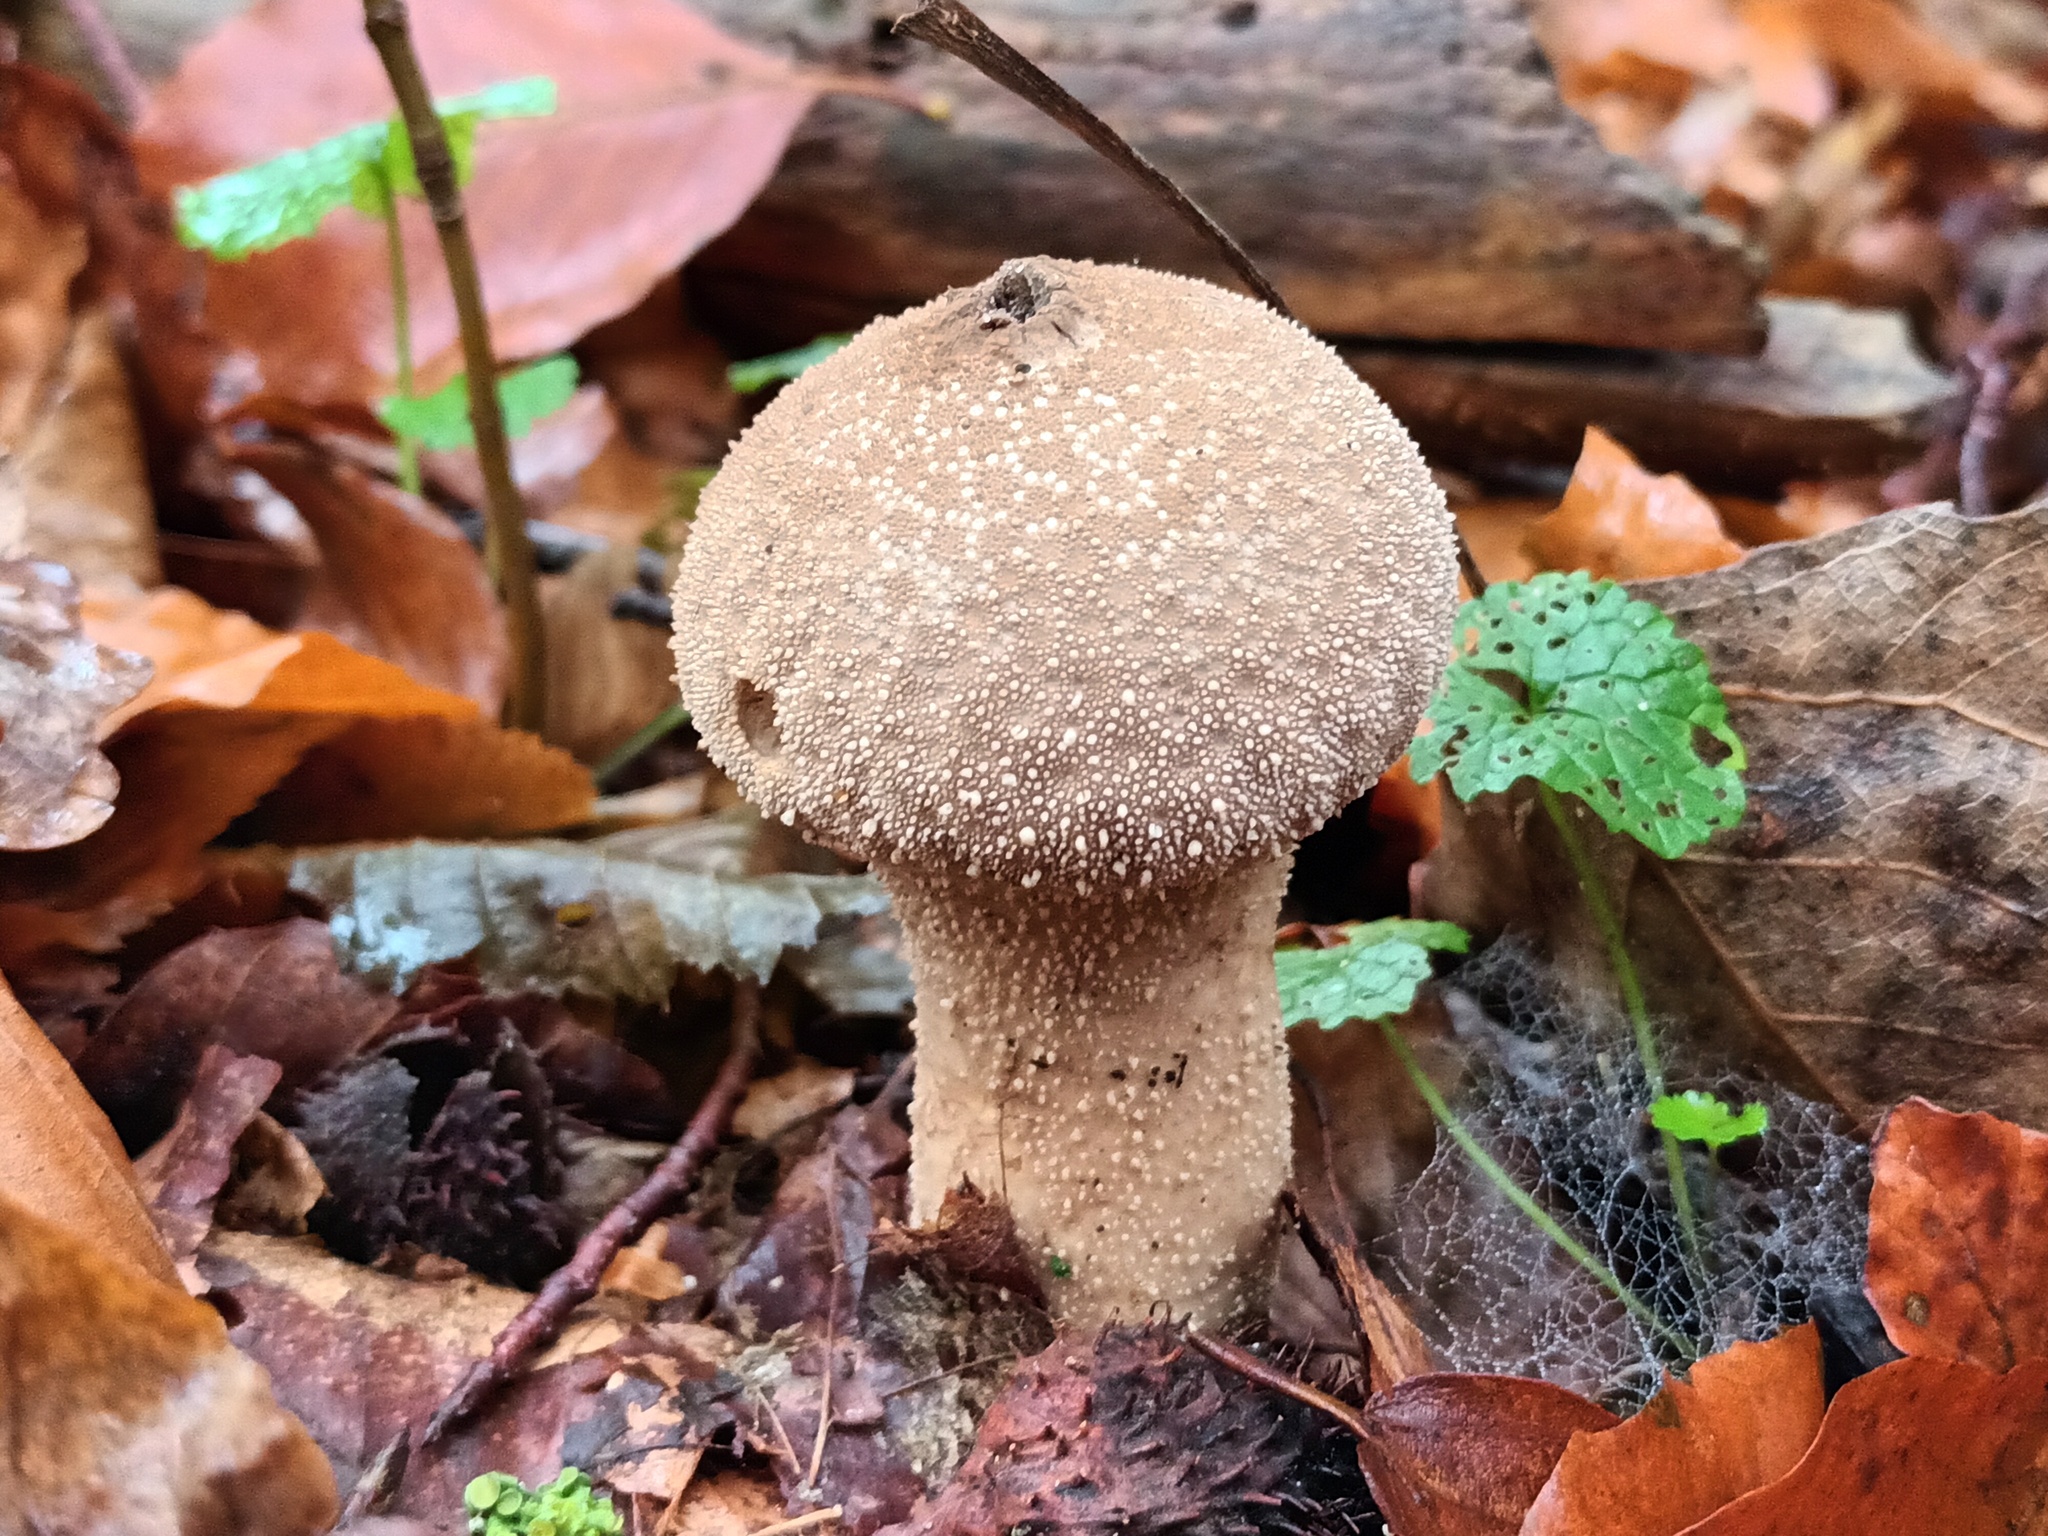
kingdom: Fungi
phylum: Basidiomycota
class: Agaricomycetes
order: Agaricales
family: Lycoperdaceae
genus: Lycoperdon
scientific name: Lycoperdon perlatum
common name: Common puffball
